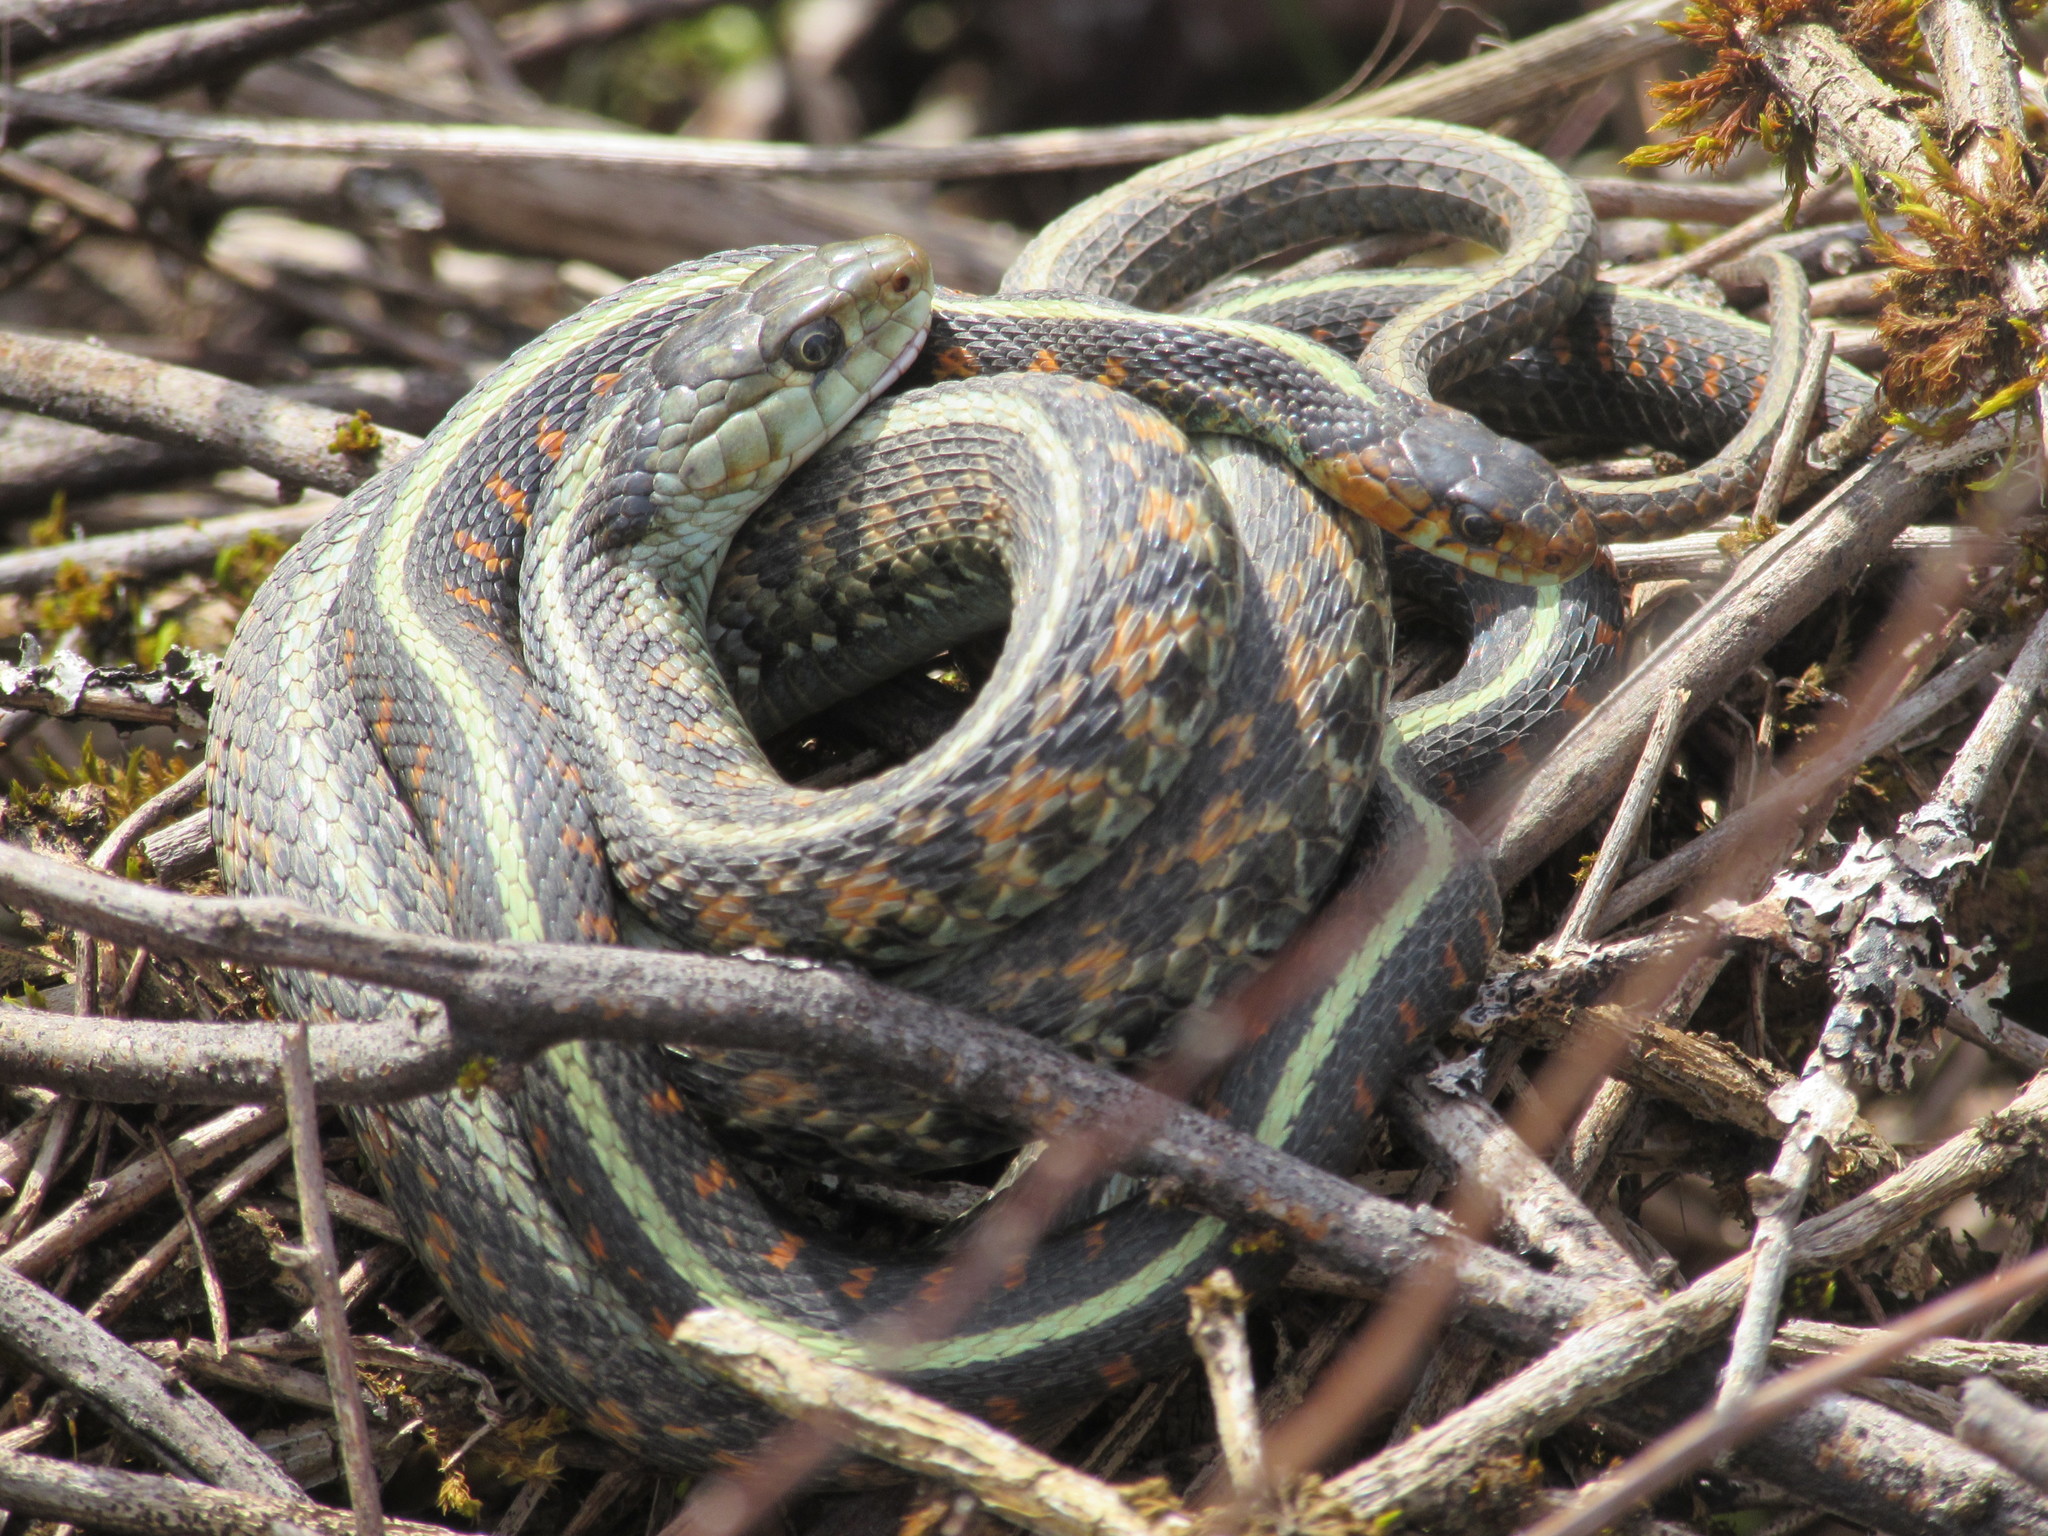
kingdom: Animalia
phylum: Chordata
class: Squamata
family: Colubridae
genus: Thamnophis
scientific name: Thamnophis sirtalis
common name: Common garter snake
